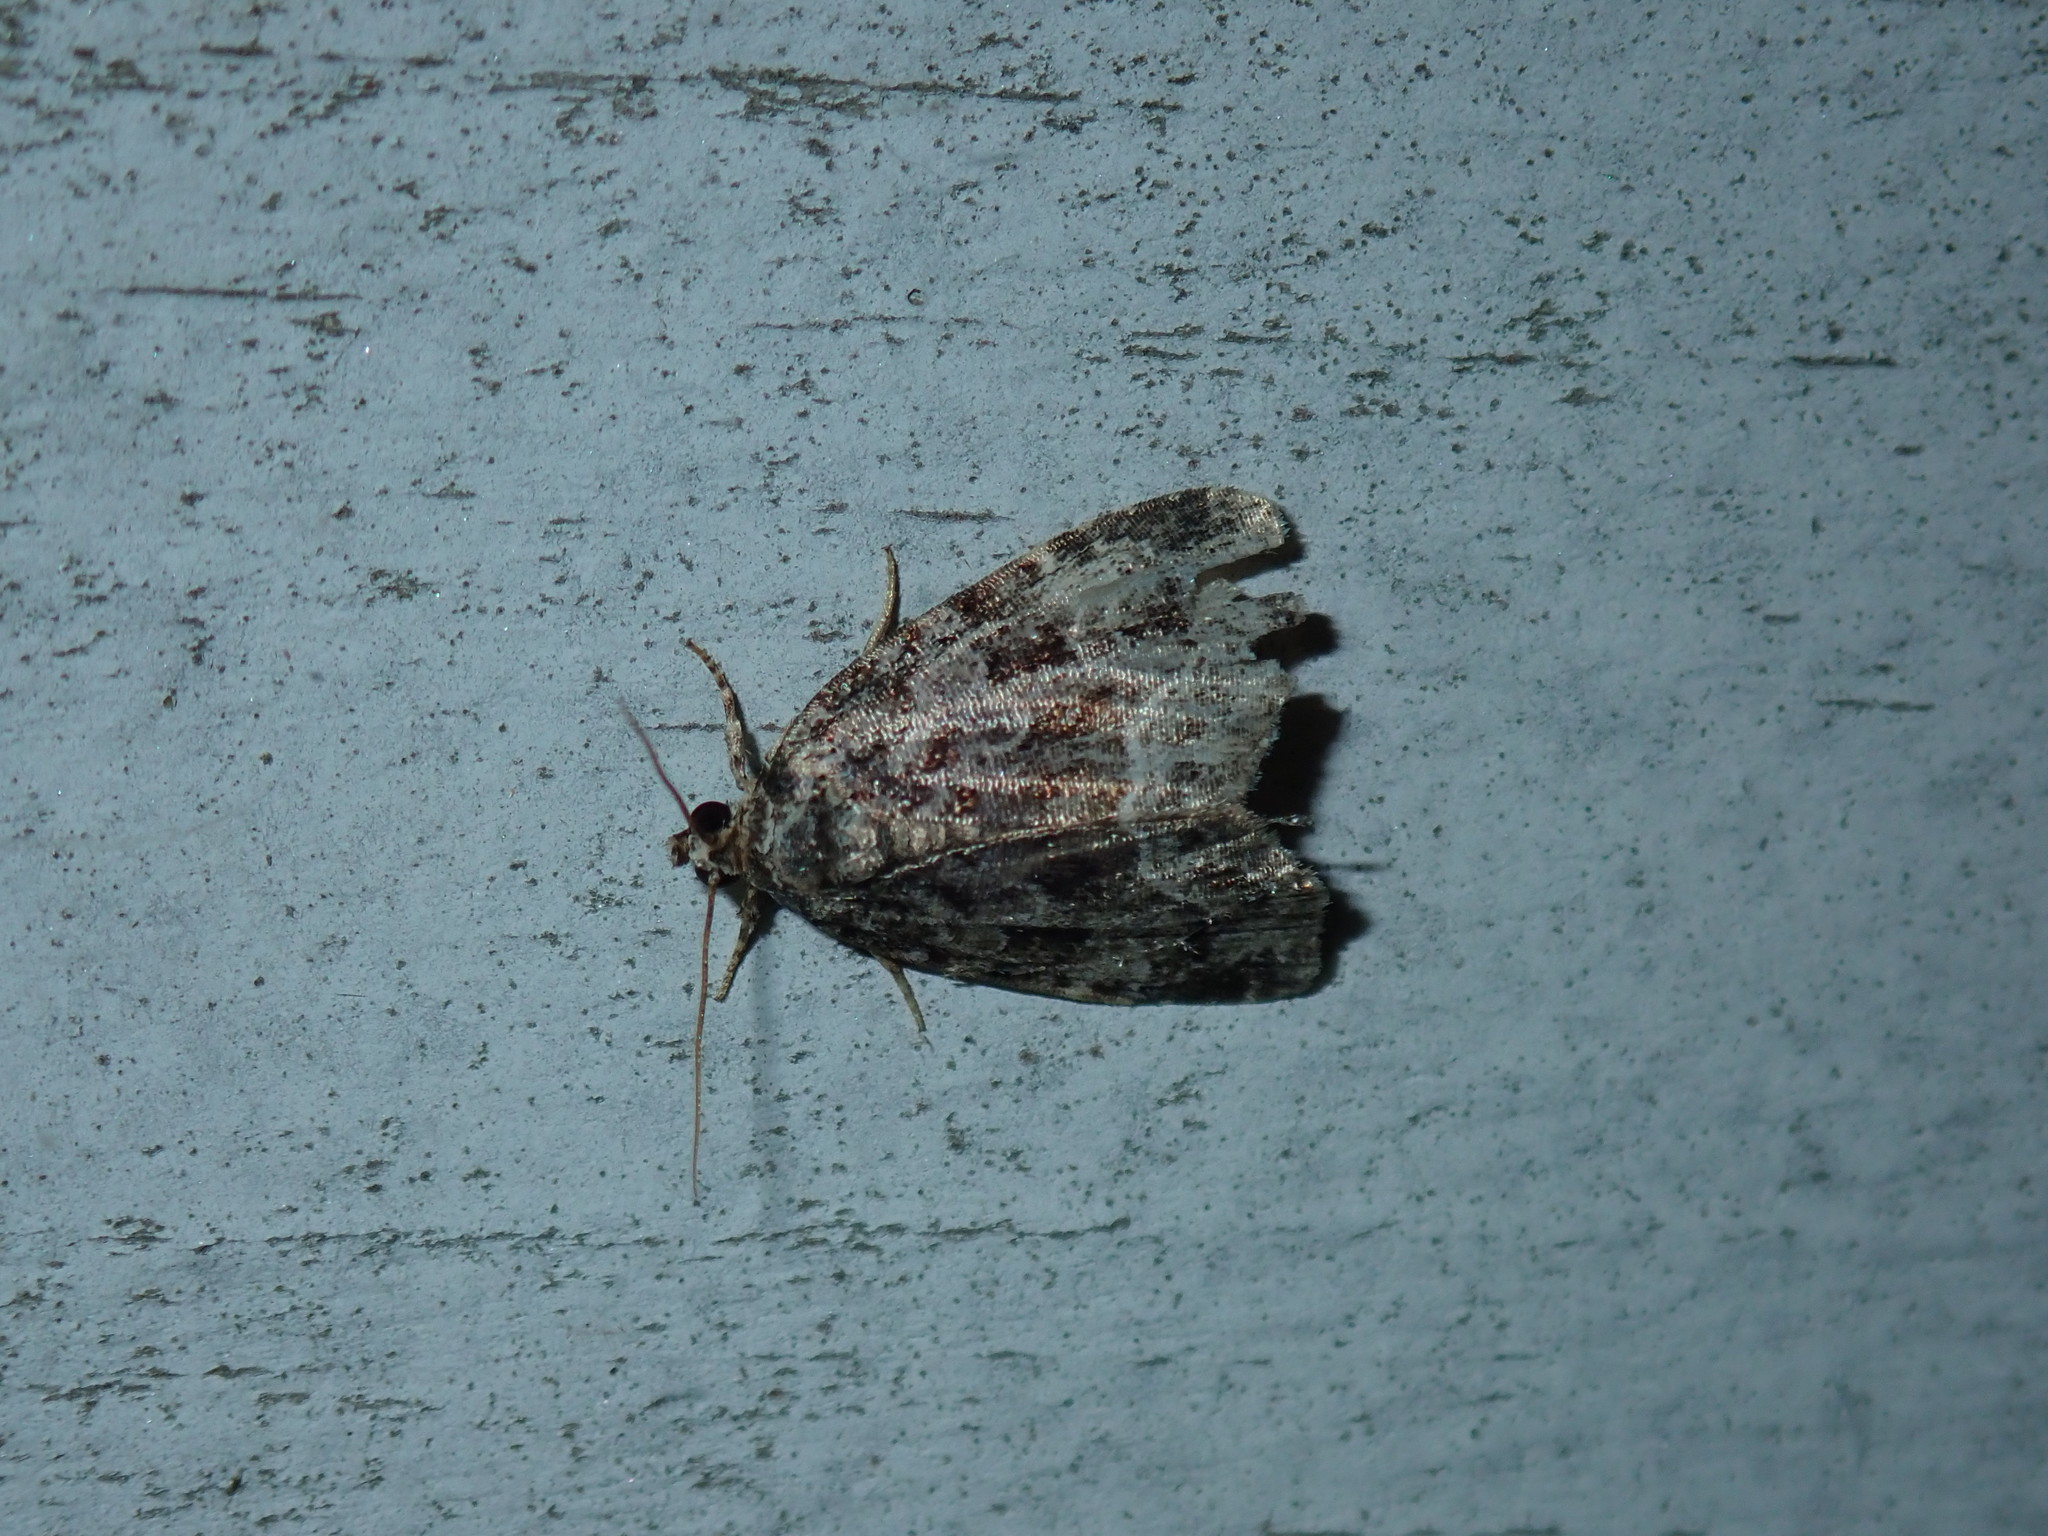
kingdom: Animalia
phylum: Arthropoda
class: Insecta
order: Lepidoptera
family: Noctuidae
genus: Protodeltote
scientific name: Protodeltote muscosula
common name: Large mossy glyph
